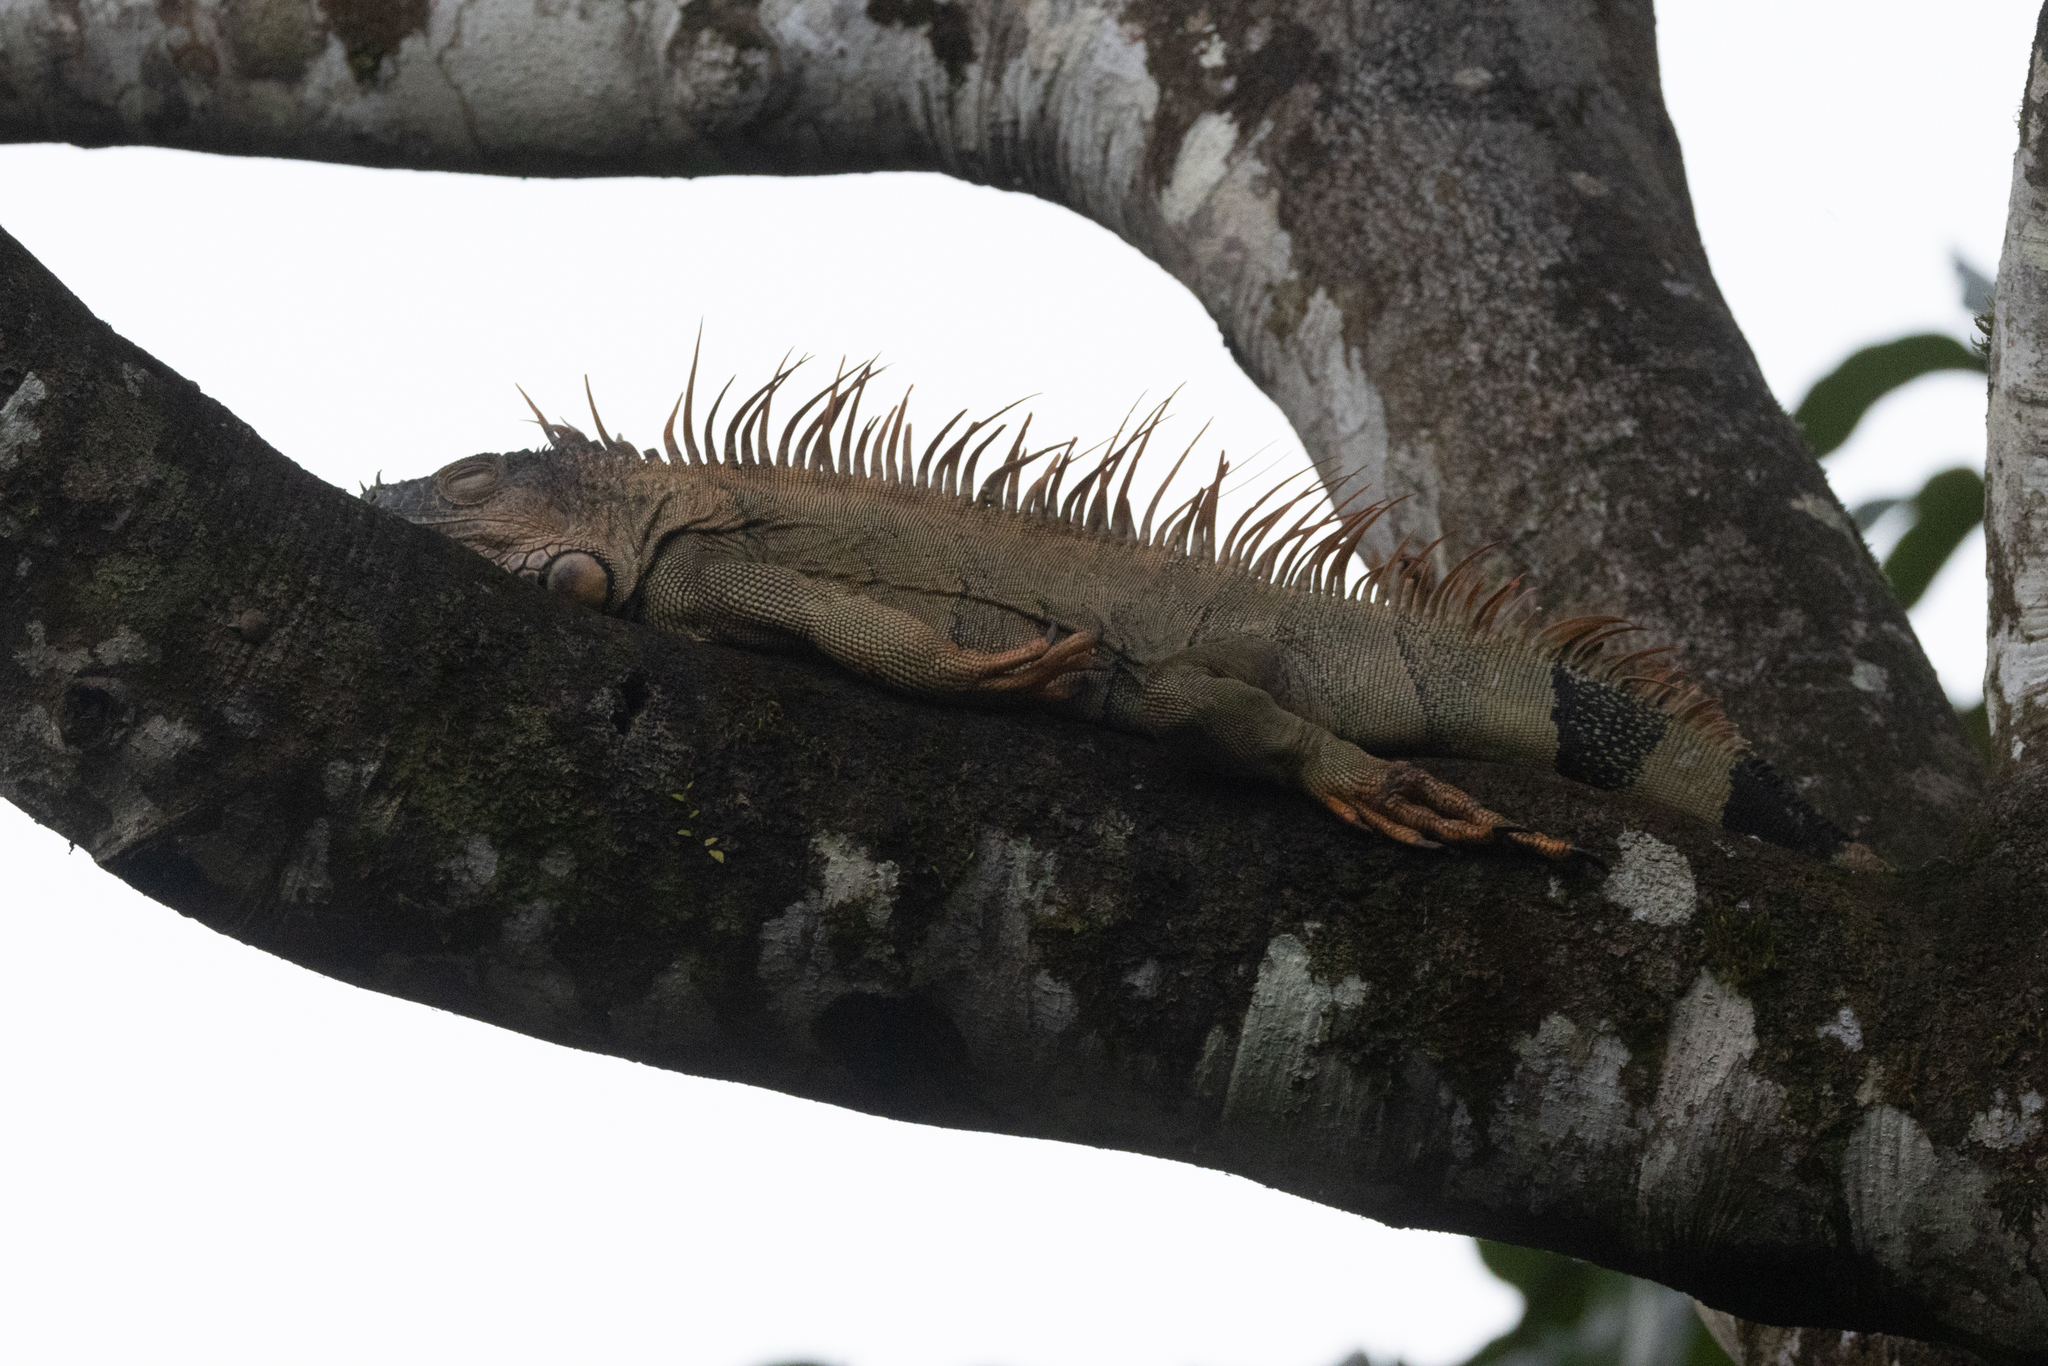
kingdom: Animalia
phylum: Chordata
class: Squamata
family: Iguanidae
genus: Iguana
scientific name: Iguana iguana
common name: Green iguana
